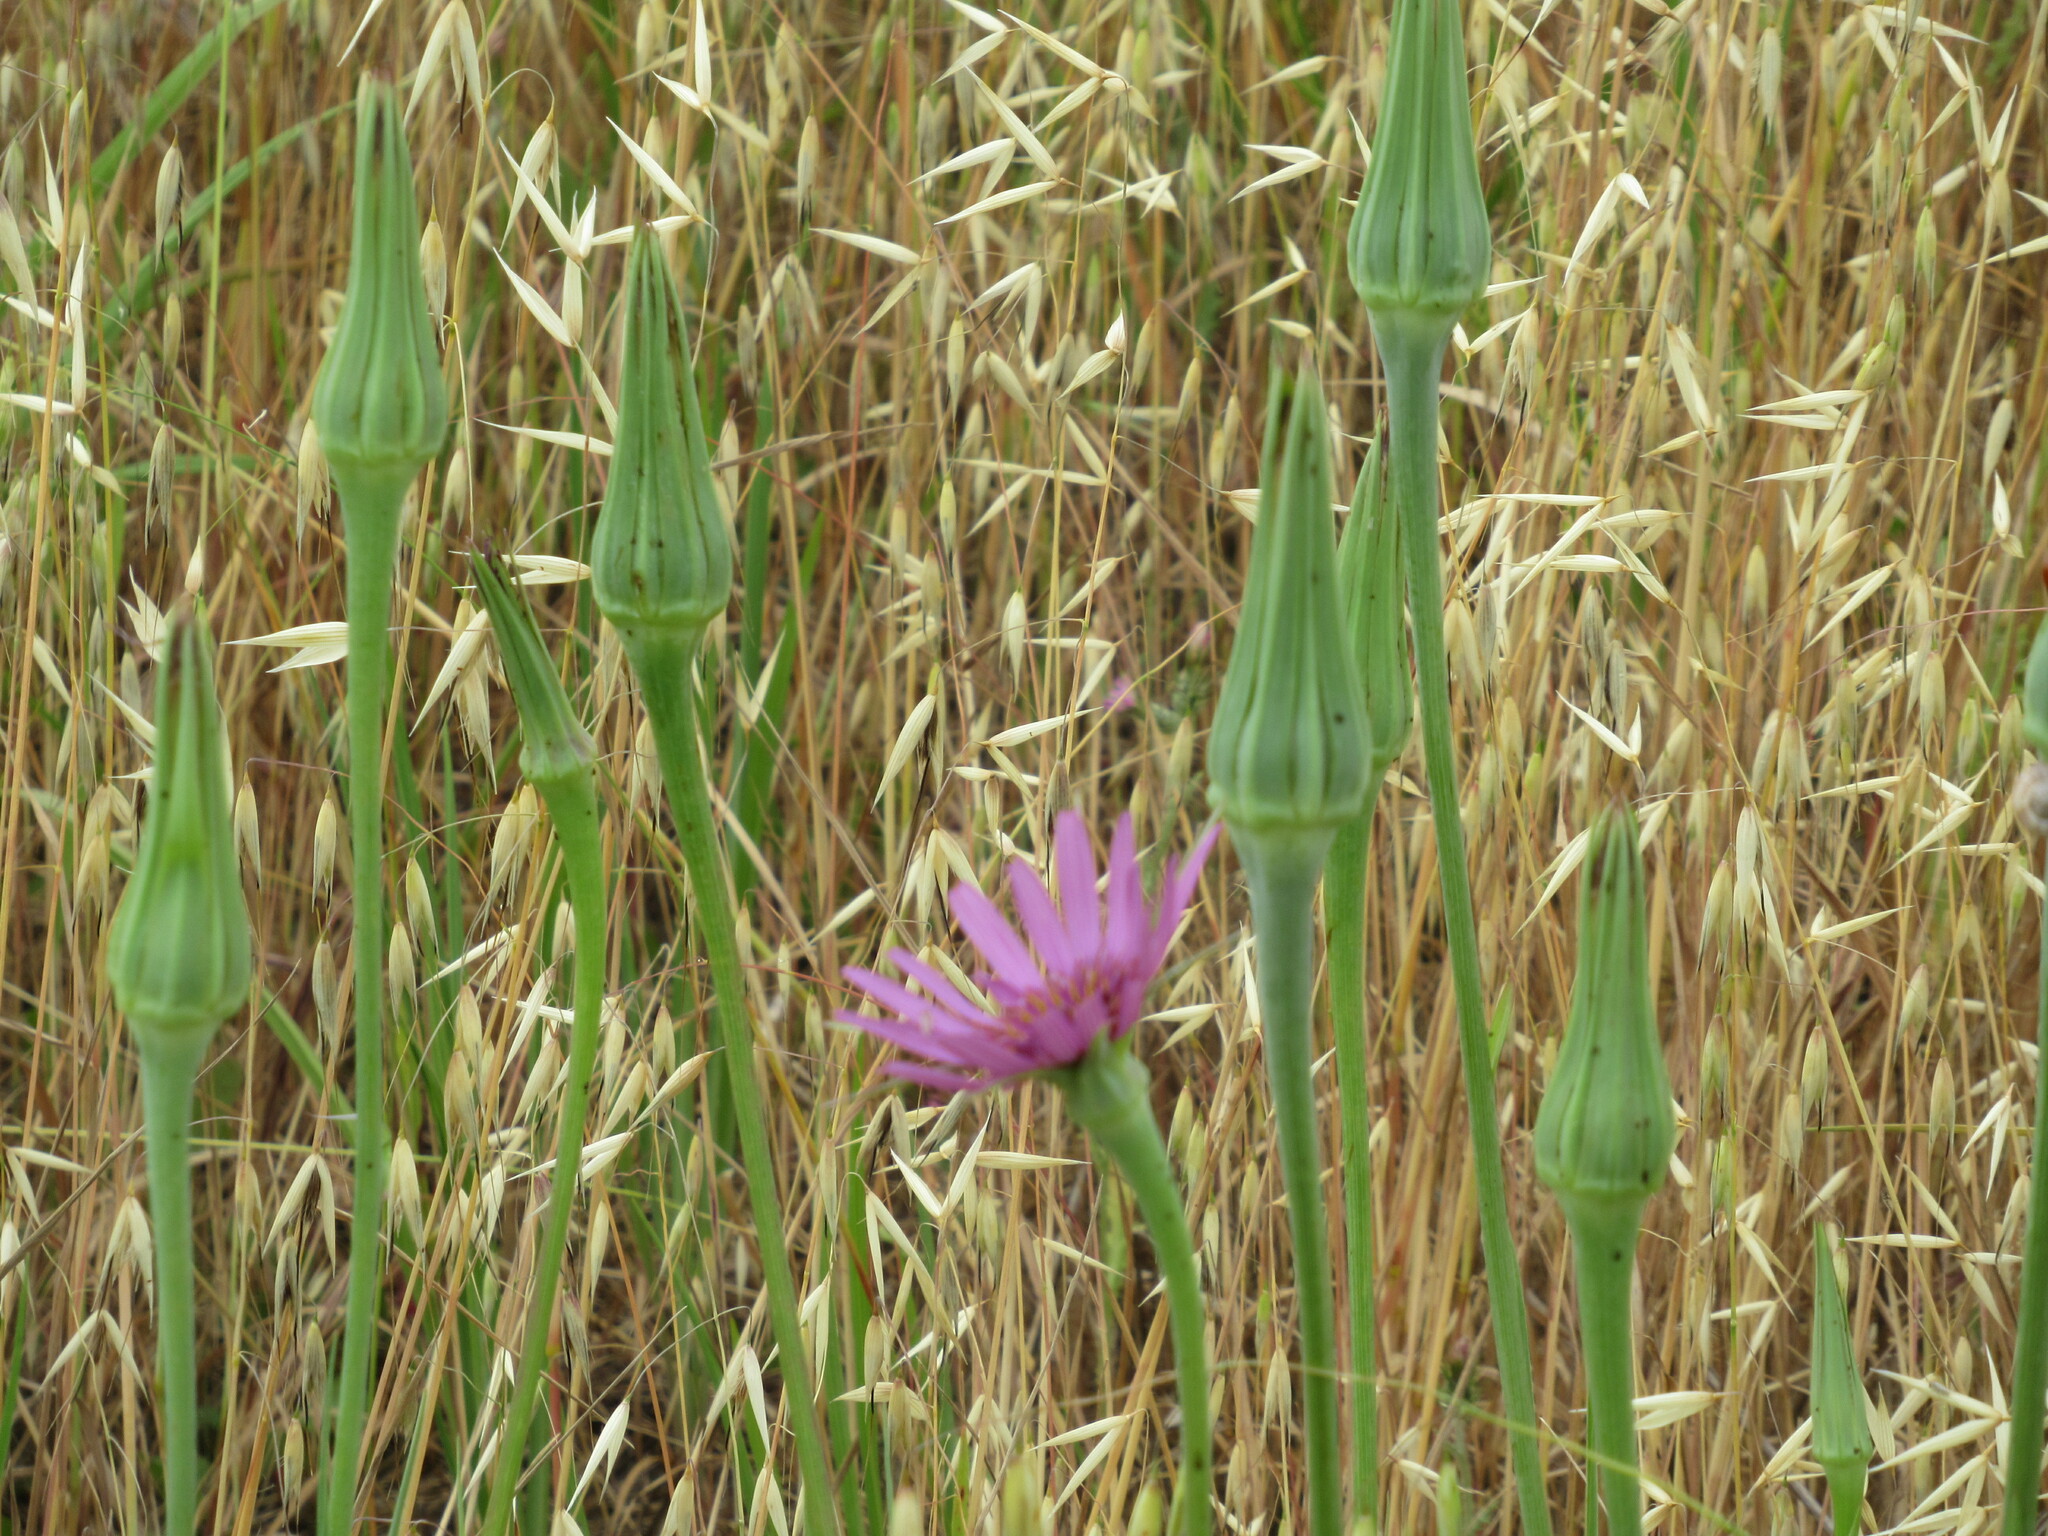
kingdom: Plantae
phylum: Tracheophyta
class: Magnoliopsida
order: Asterales
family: Asteraceae
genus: Tragopogon
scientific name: Tragopogon porrifolius
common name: Salsify
